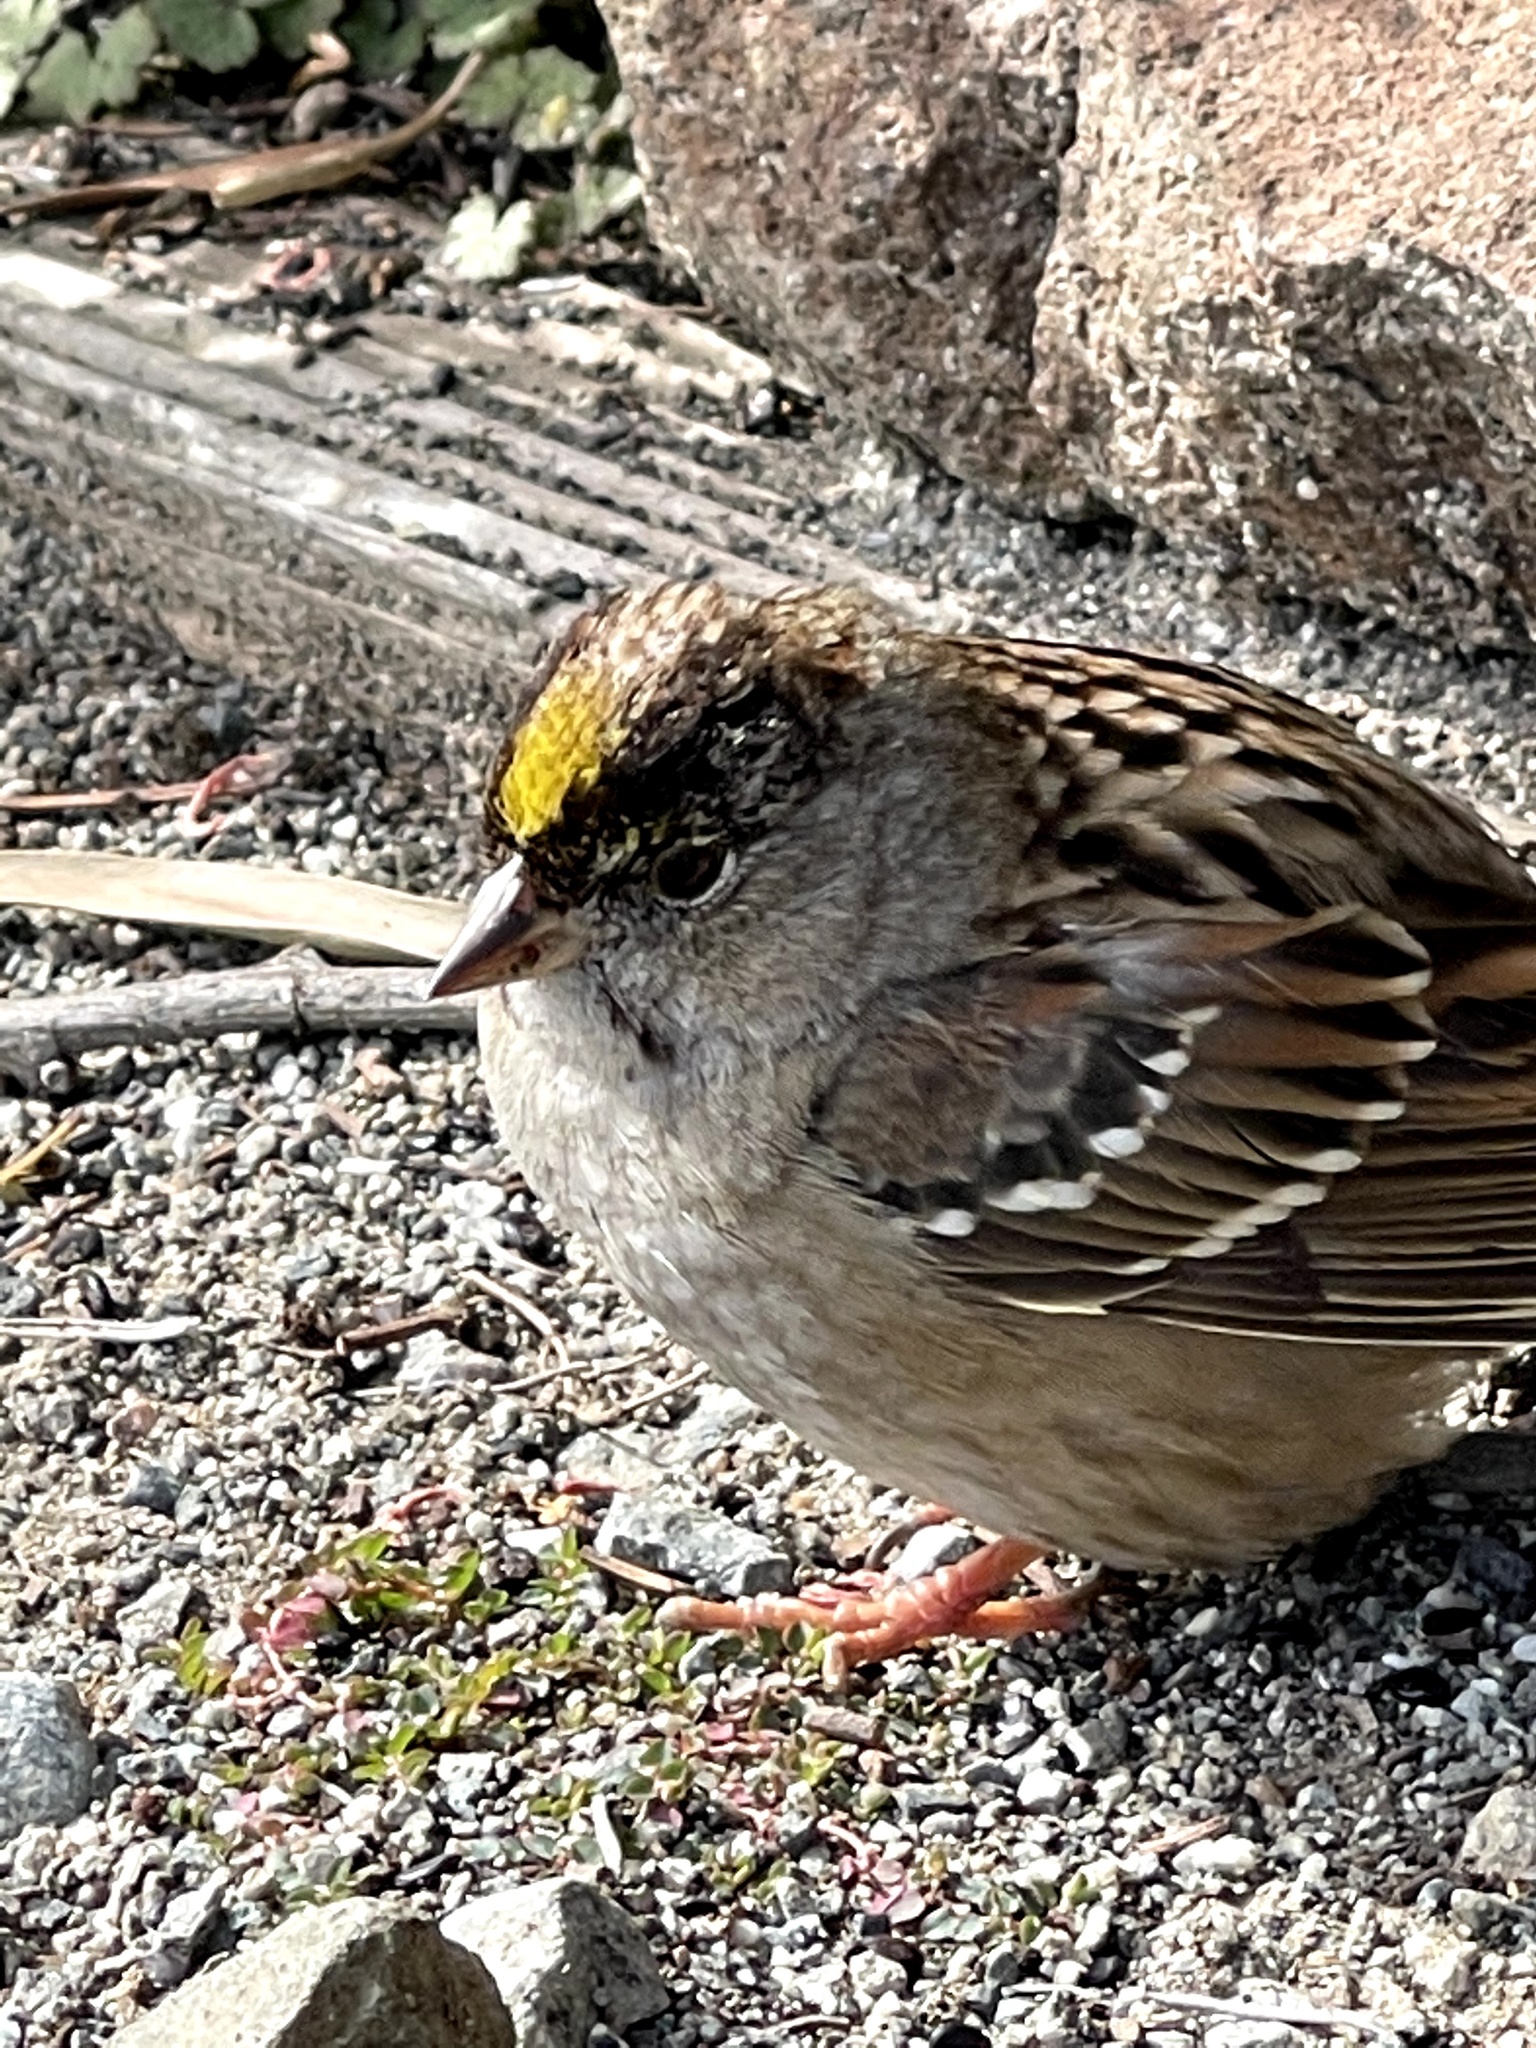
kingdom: Animalia
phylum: Chordata
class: Aves
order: Passeriformes
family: Passerellidae
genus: Zonotrichia
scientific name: Zonotrichia atricapilla
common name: Golden-crowned sparrow
